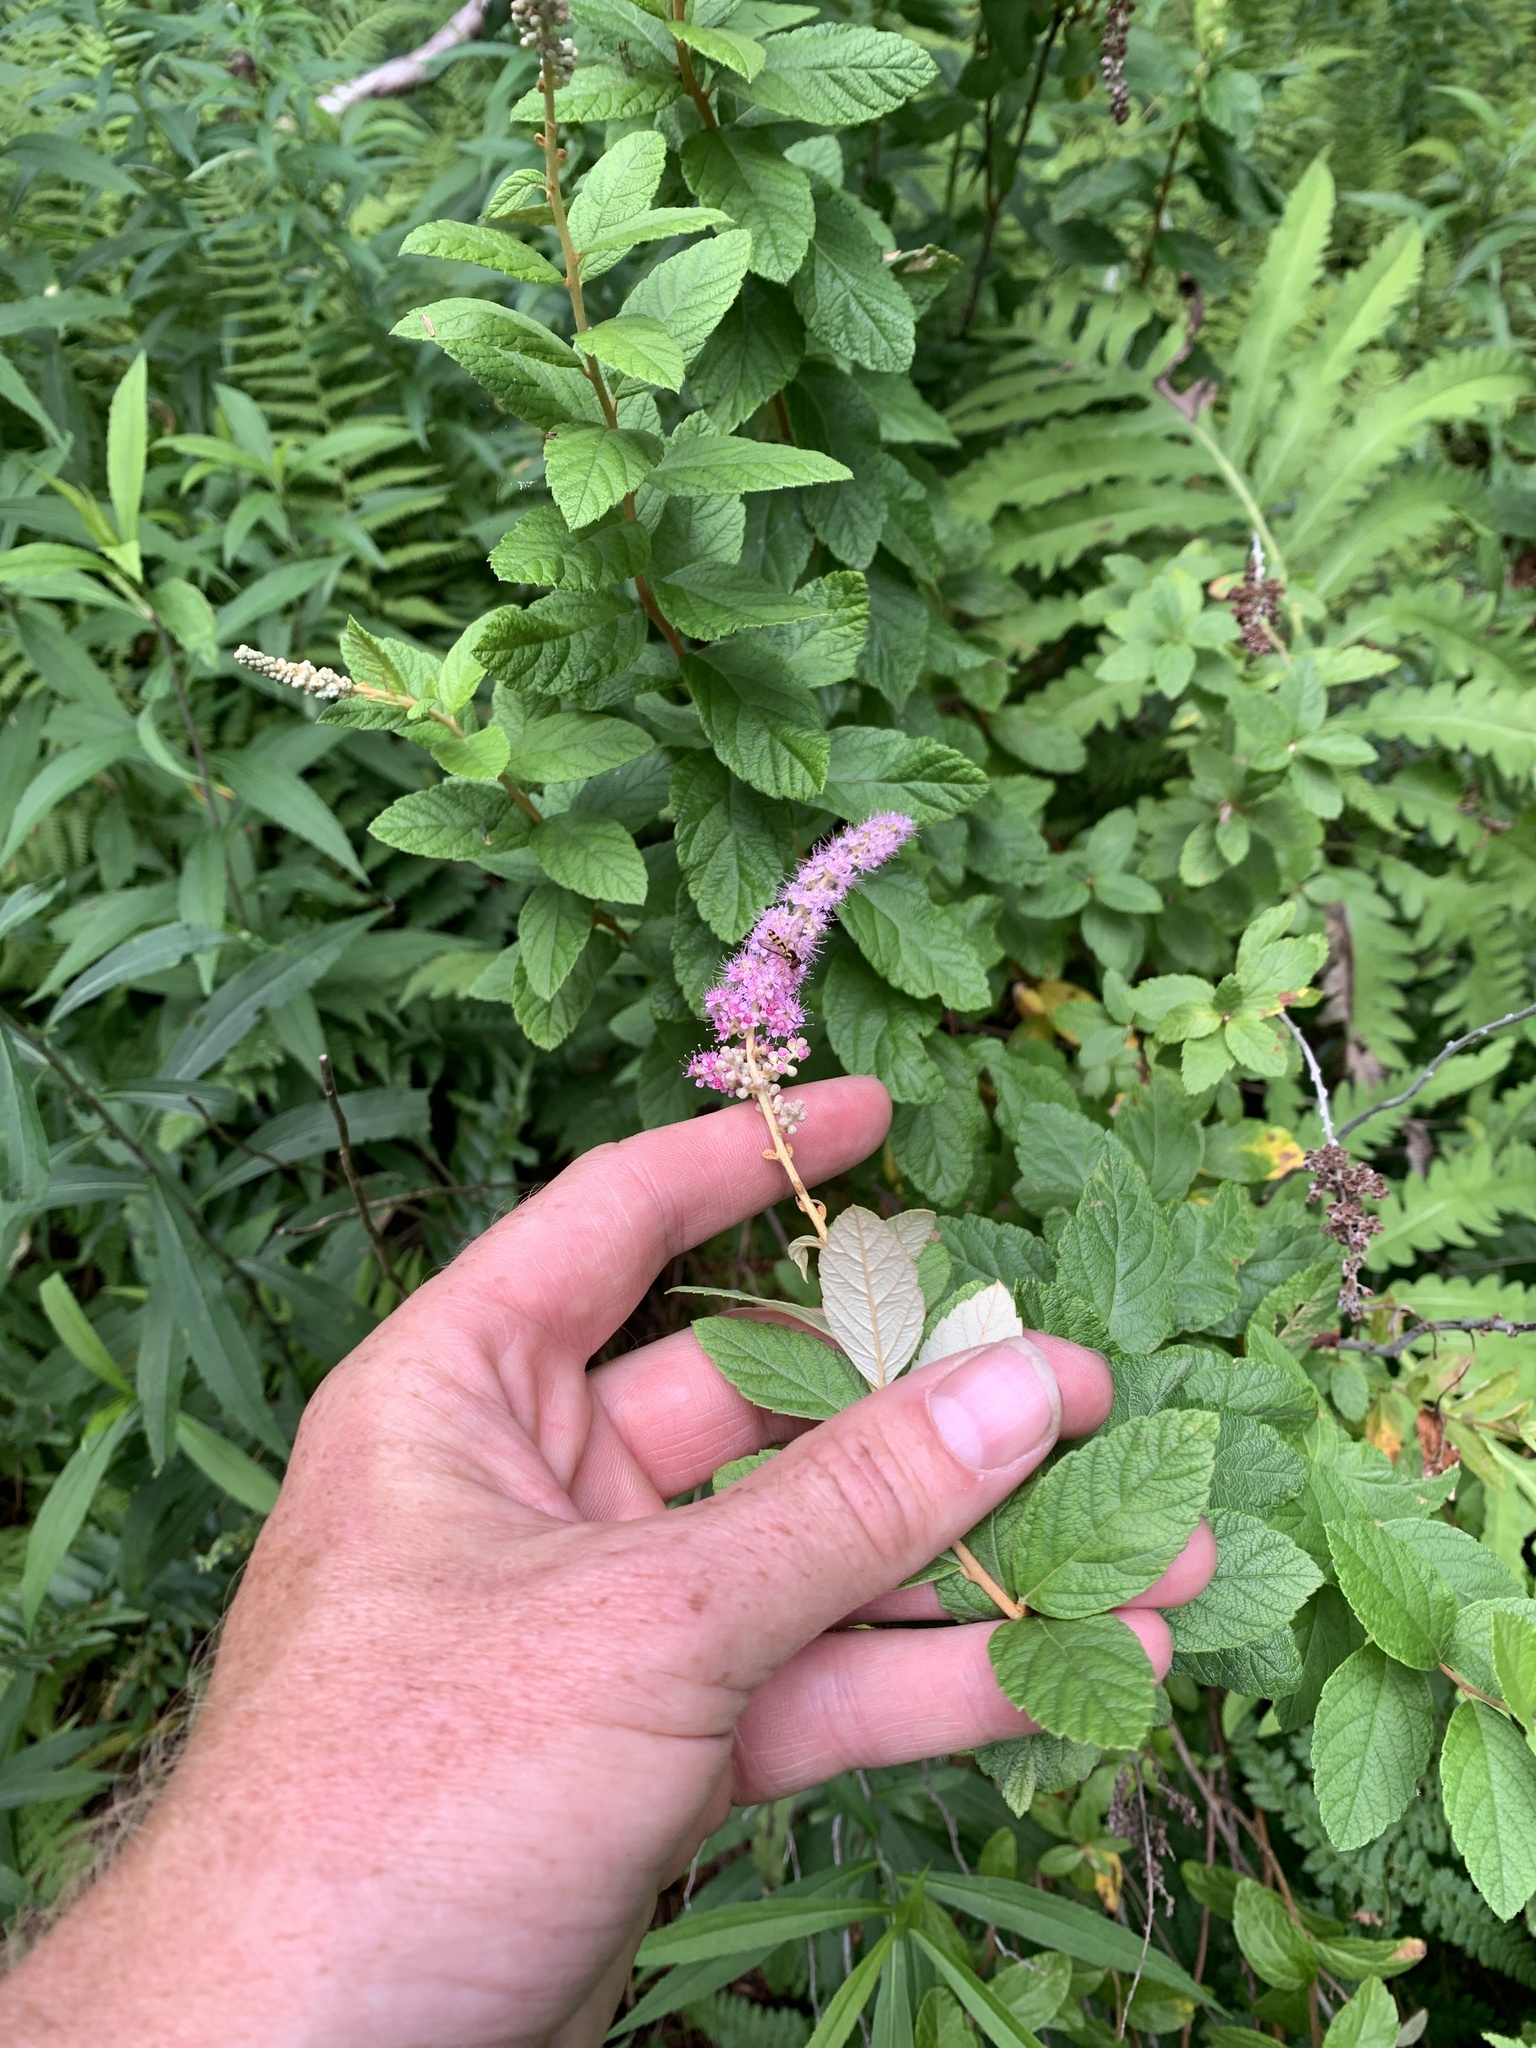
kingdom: Plantae
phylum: Tracheophyta
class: Magnoliopsida
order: Rosales
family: Rosaceae
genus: Spiraea
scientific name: Spiraea tomentosa
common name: Hardhack
